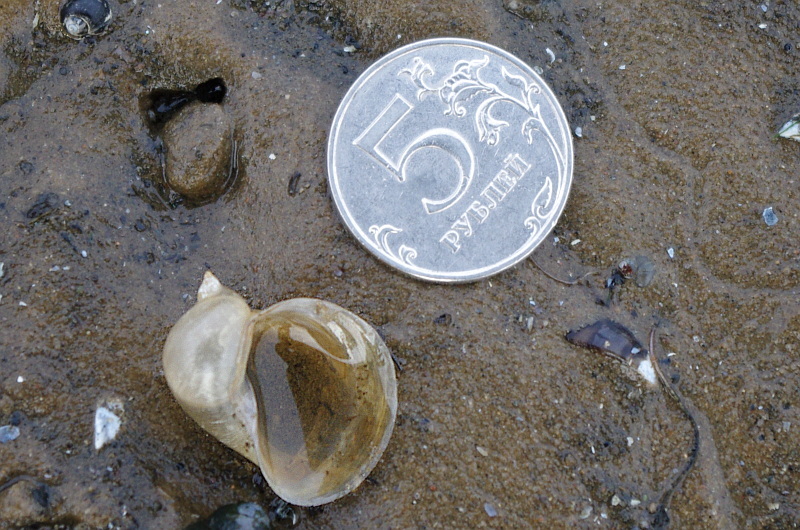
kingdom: Animalia
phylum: Mollusca
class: Gastropoda
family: Lymnaeidae
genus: Radix
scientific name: Radix auricularia
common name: Ear pond snail
